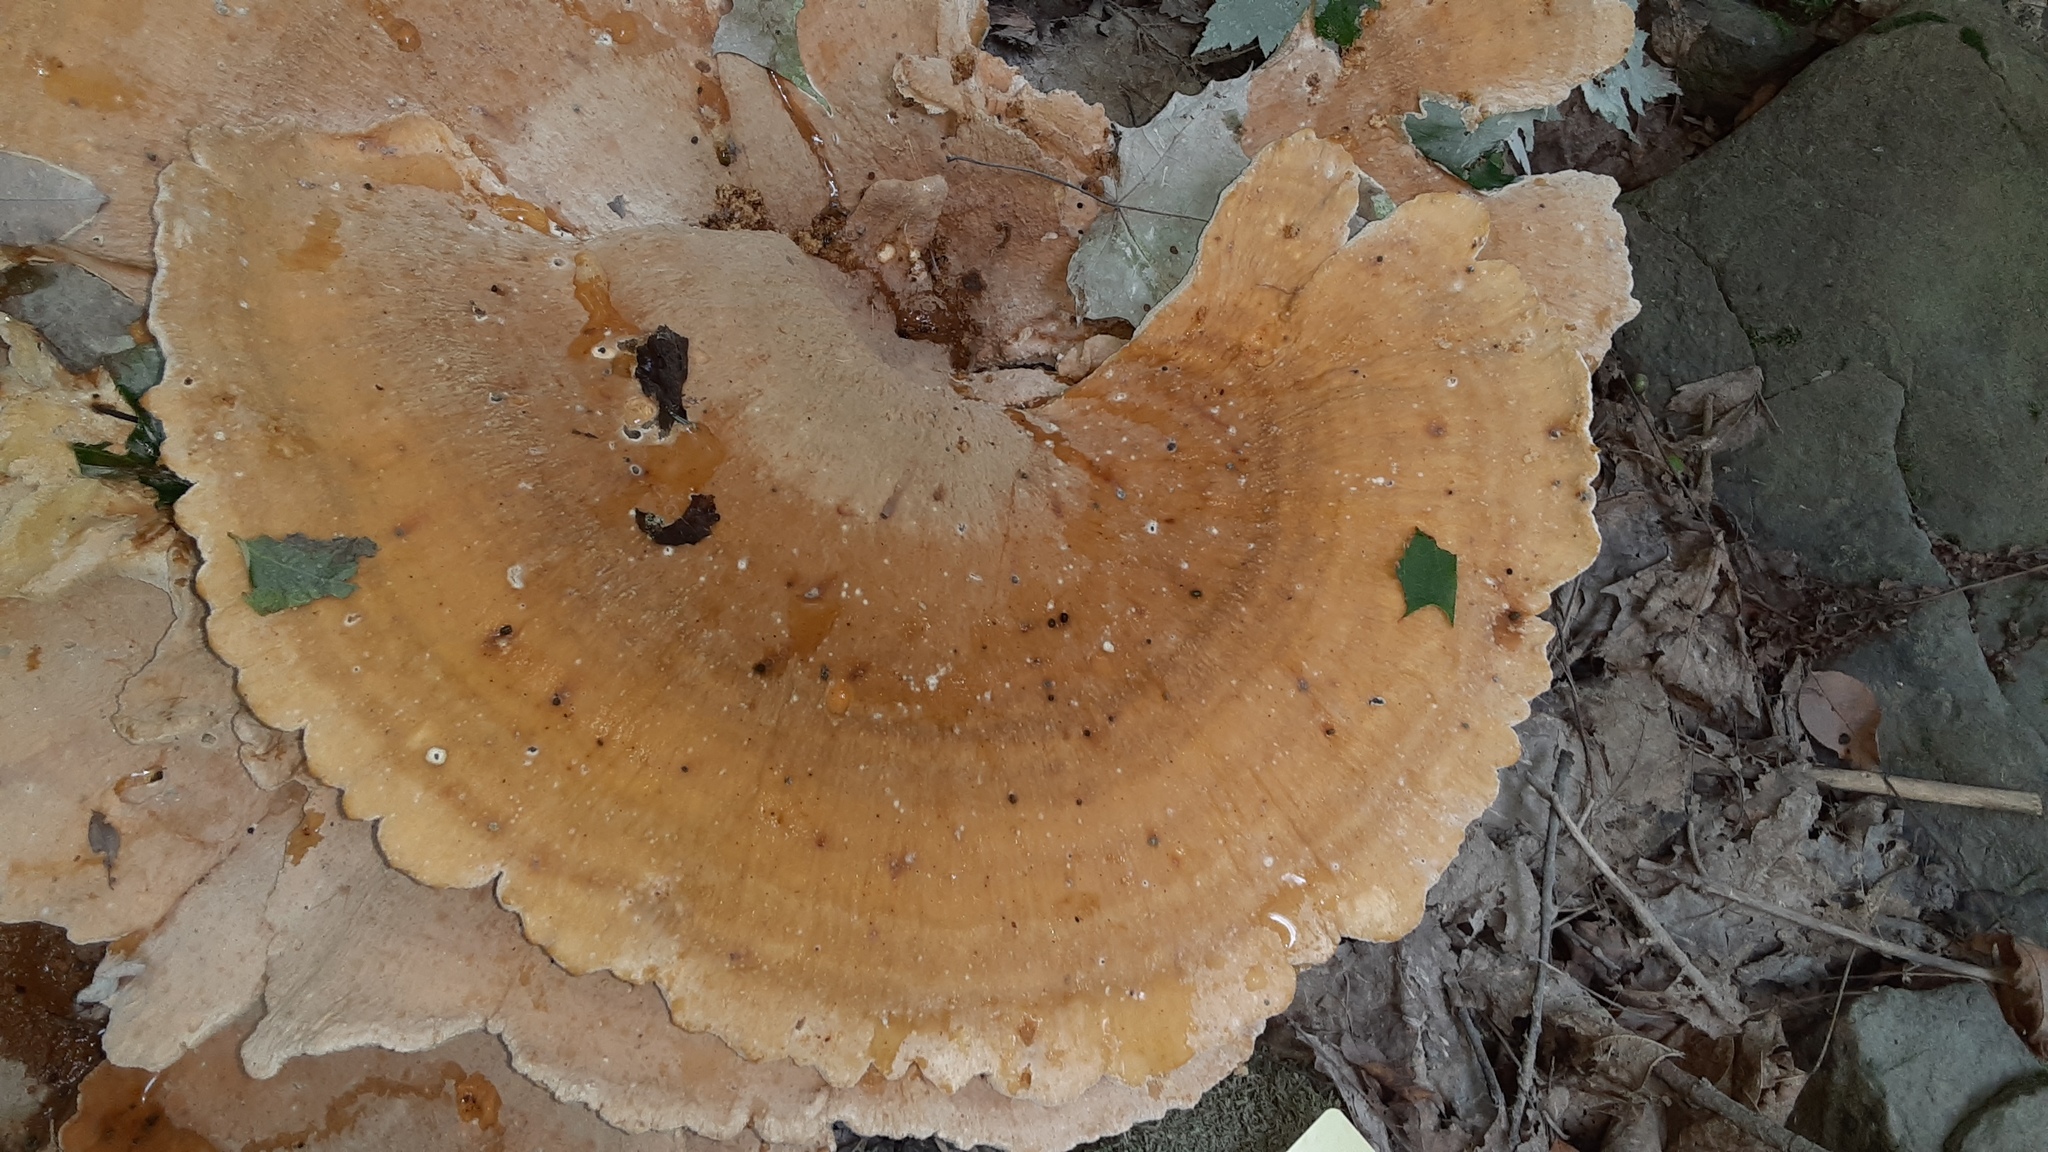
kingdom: Fungi
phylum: Basidiomycota
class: Agaricomycetes
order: Russulales
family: Bondarzewiaceae
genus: Bondarzewia
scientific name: Bondarzewia berkeleyi
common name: Berkeley's polypore
